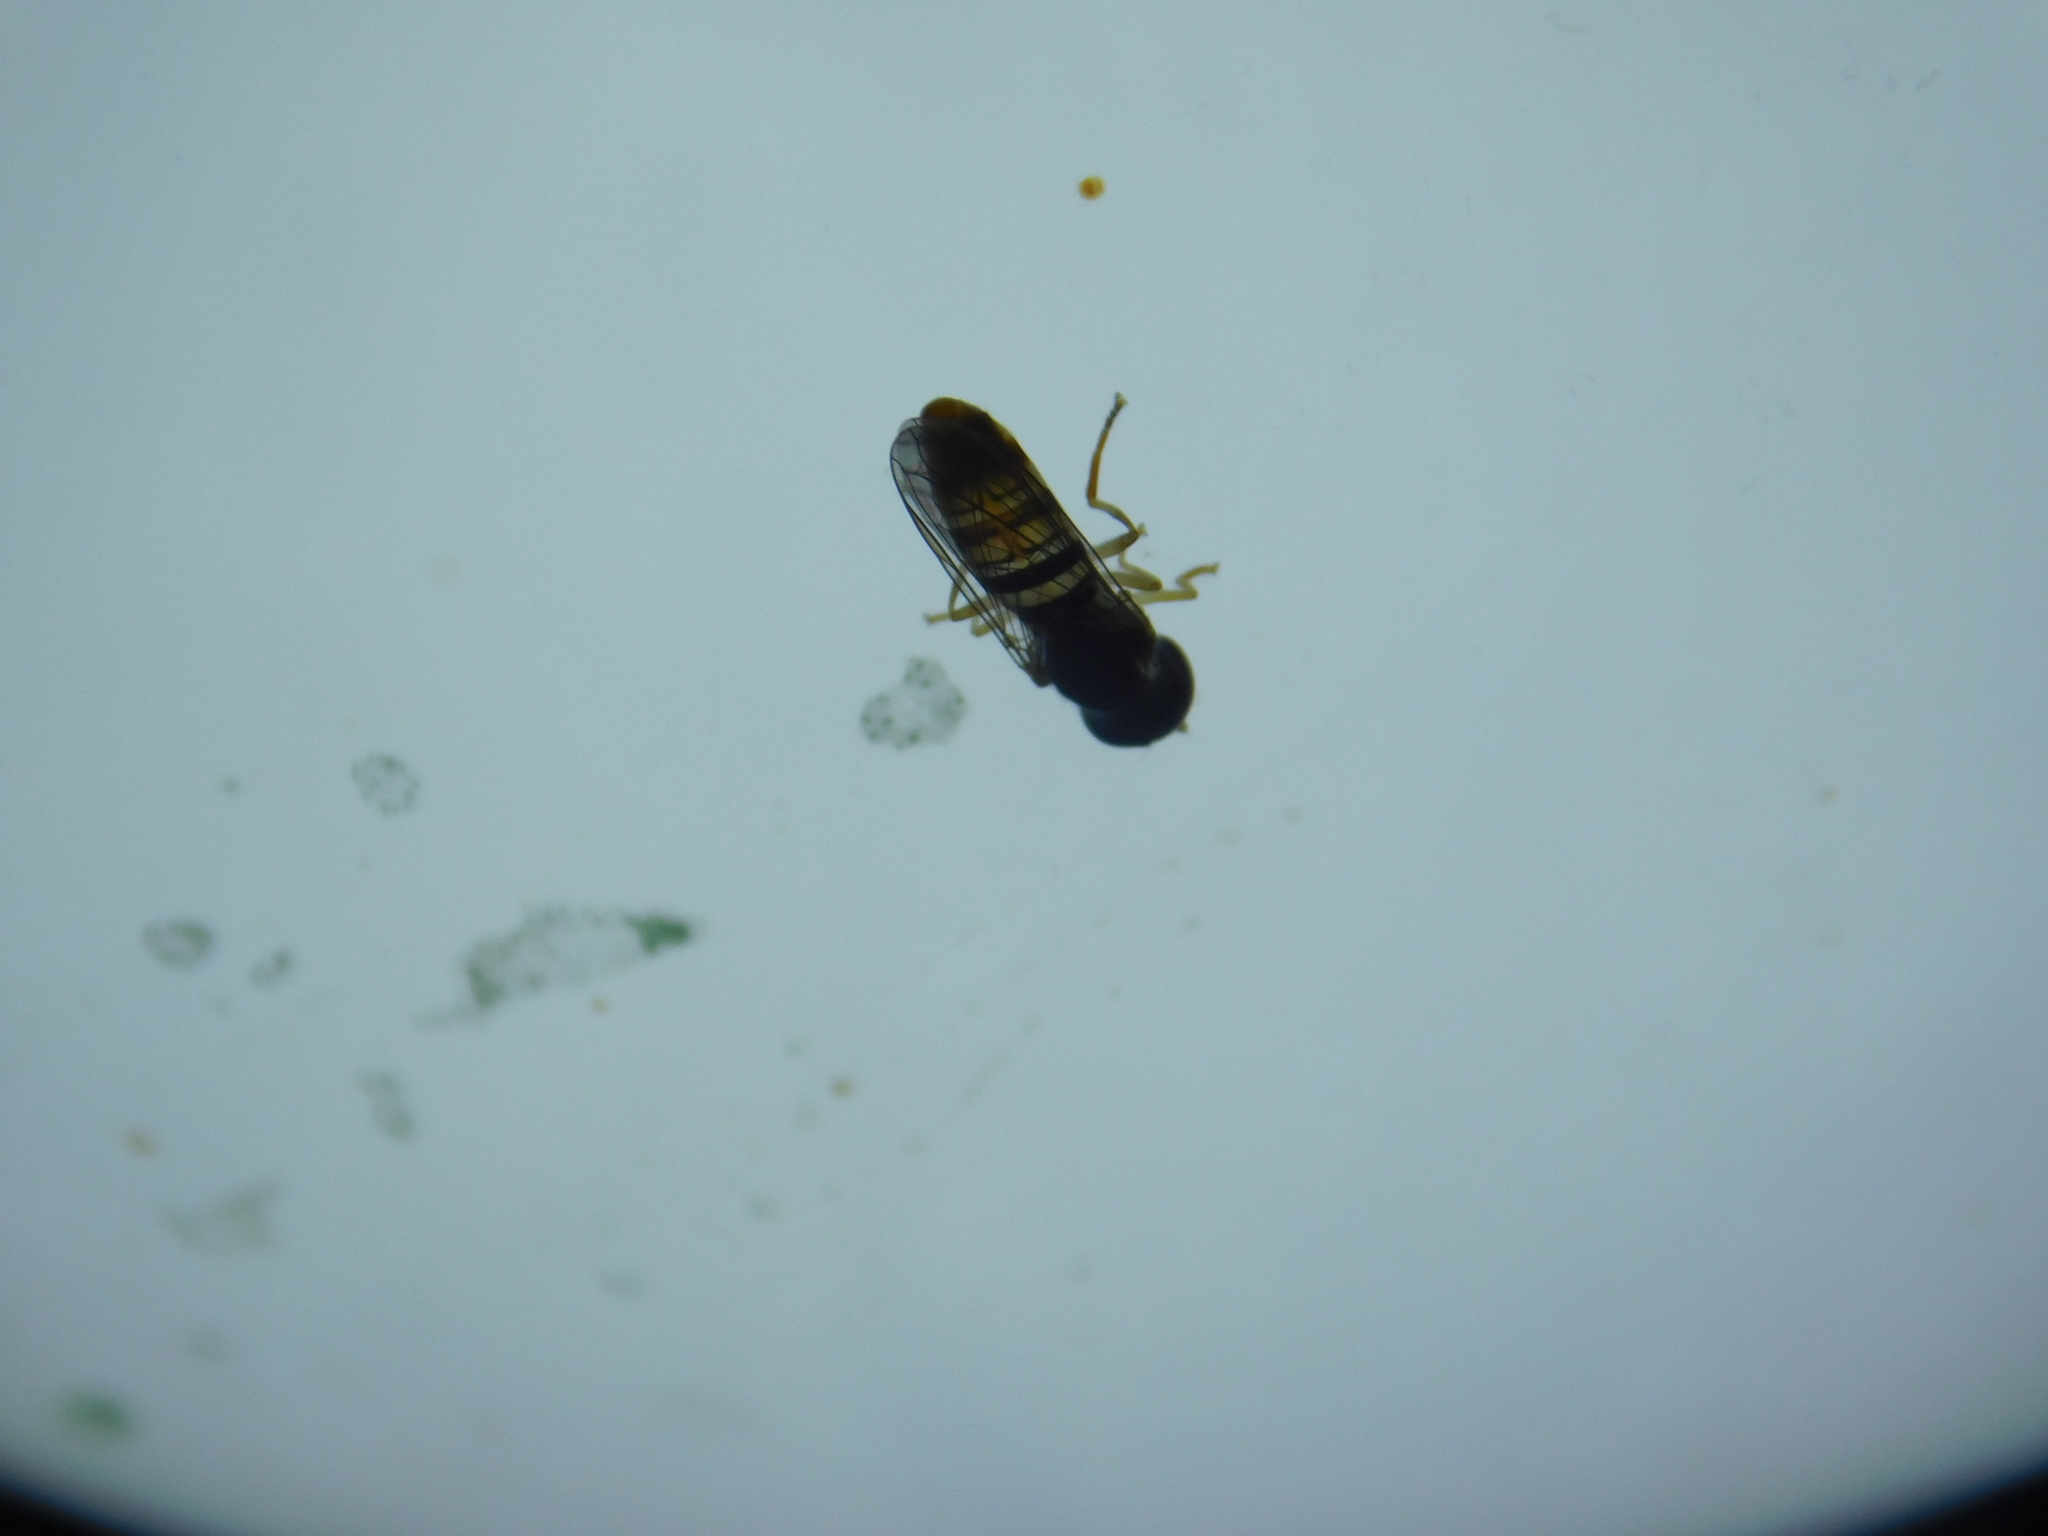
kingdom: Animalia
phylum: Arthropoda
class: Insecta
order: Diptera
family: Syrphidae
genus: Toxomerus
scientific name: Toxomerus politus
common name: Maize calligrapher
